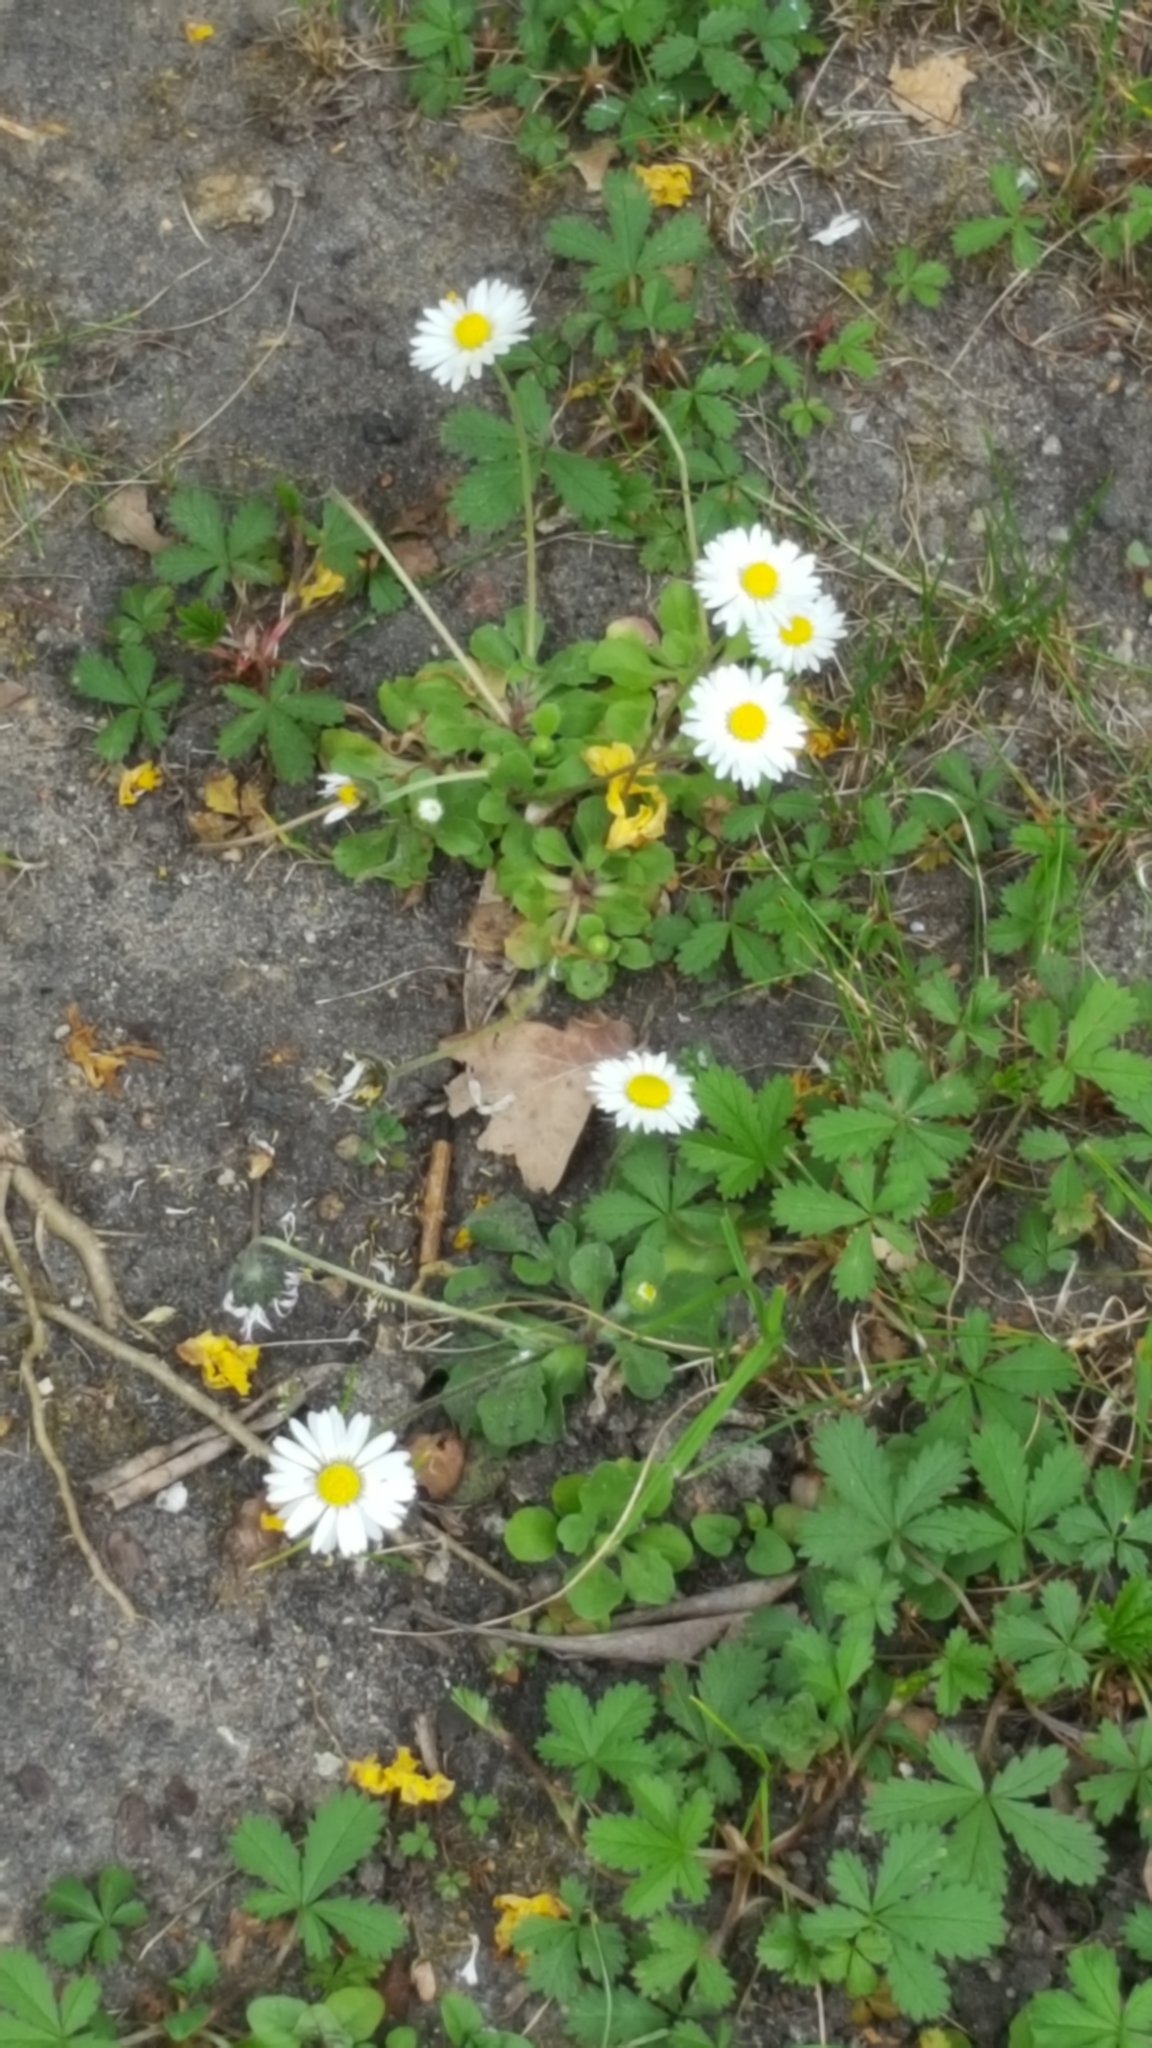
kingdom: Plantae
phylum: Tracheophyta
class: Magnoliopsida
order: Asterales
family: Asteraceae
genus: Bellis
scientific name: Bellis perennis
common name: Lawndaisy
